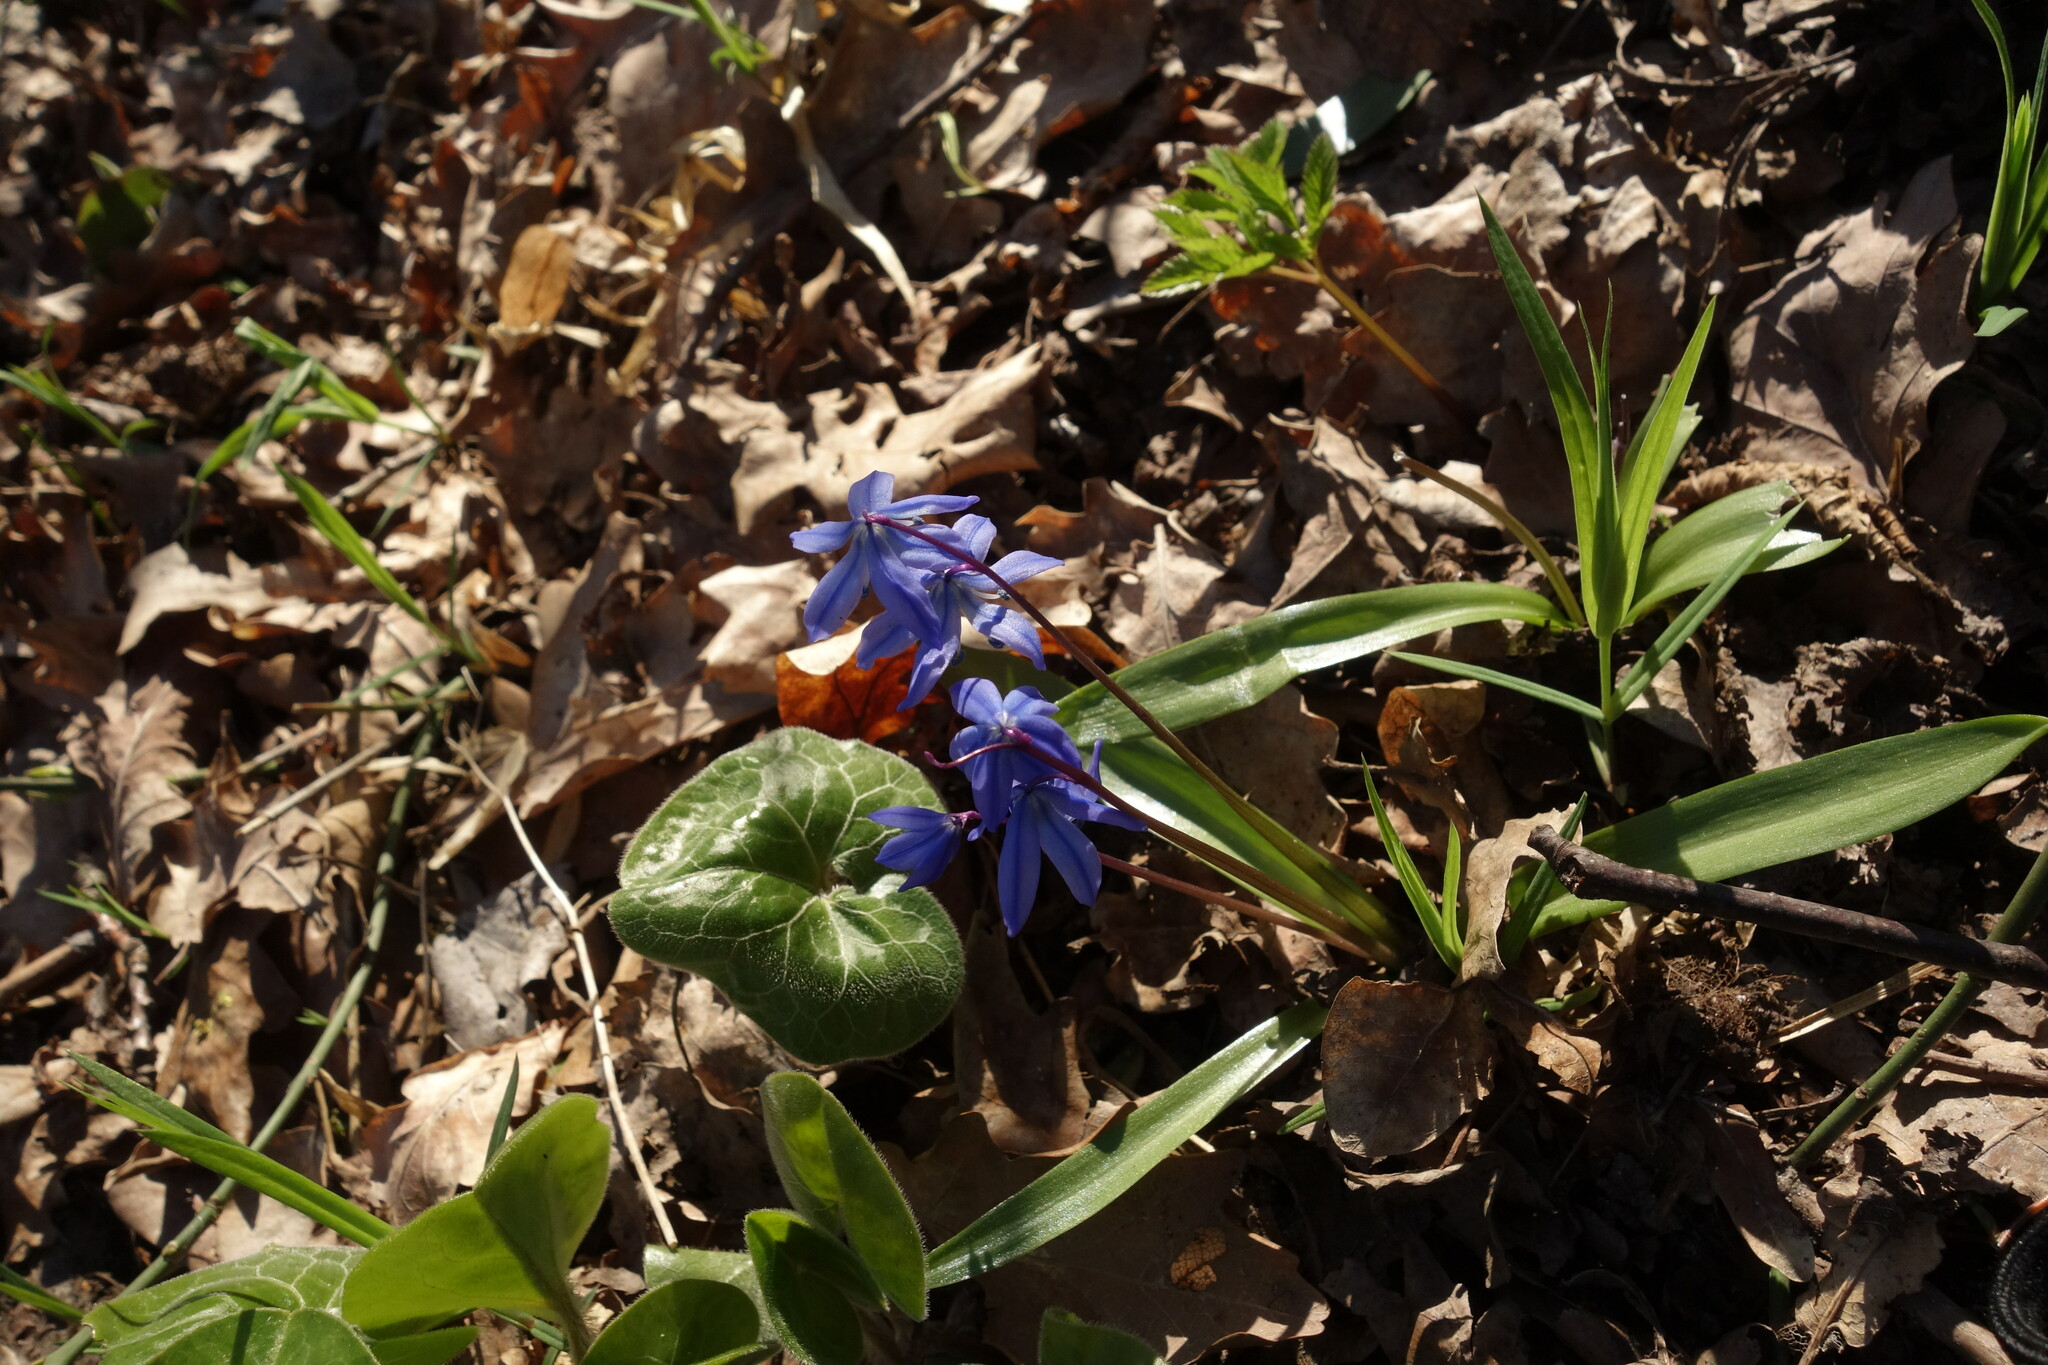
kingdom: Plantae
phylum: Tracheophyta
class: Liliopsida
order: Asparagales
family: Asparagaceae
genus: Scilla
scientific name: Scilla siberica
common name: Siberian squill
